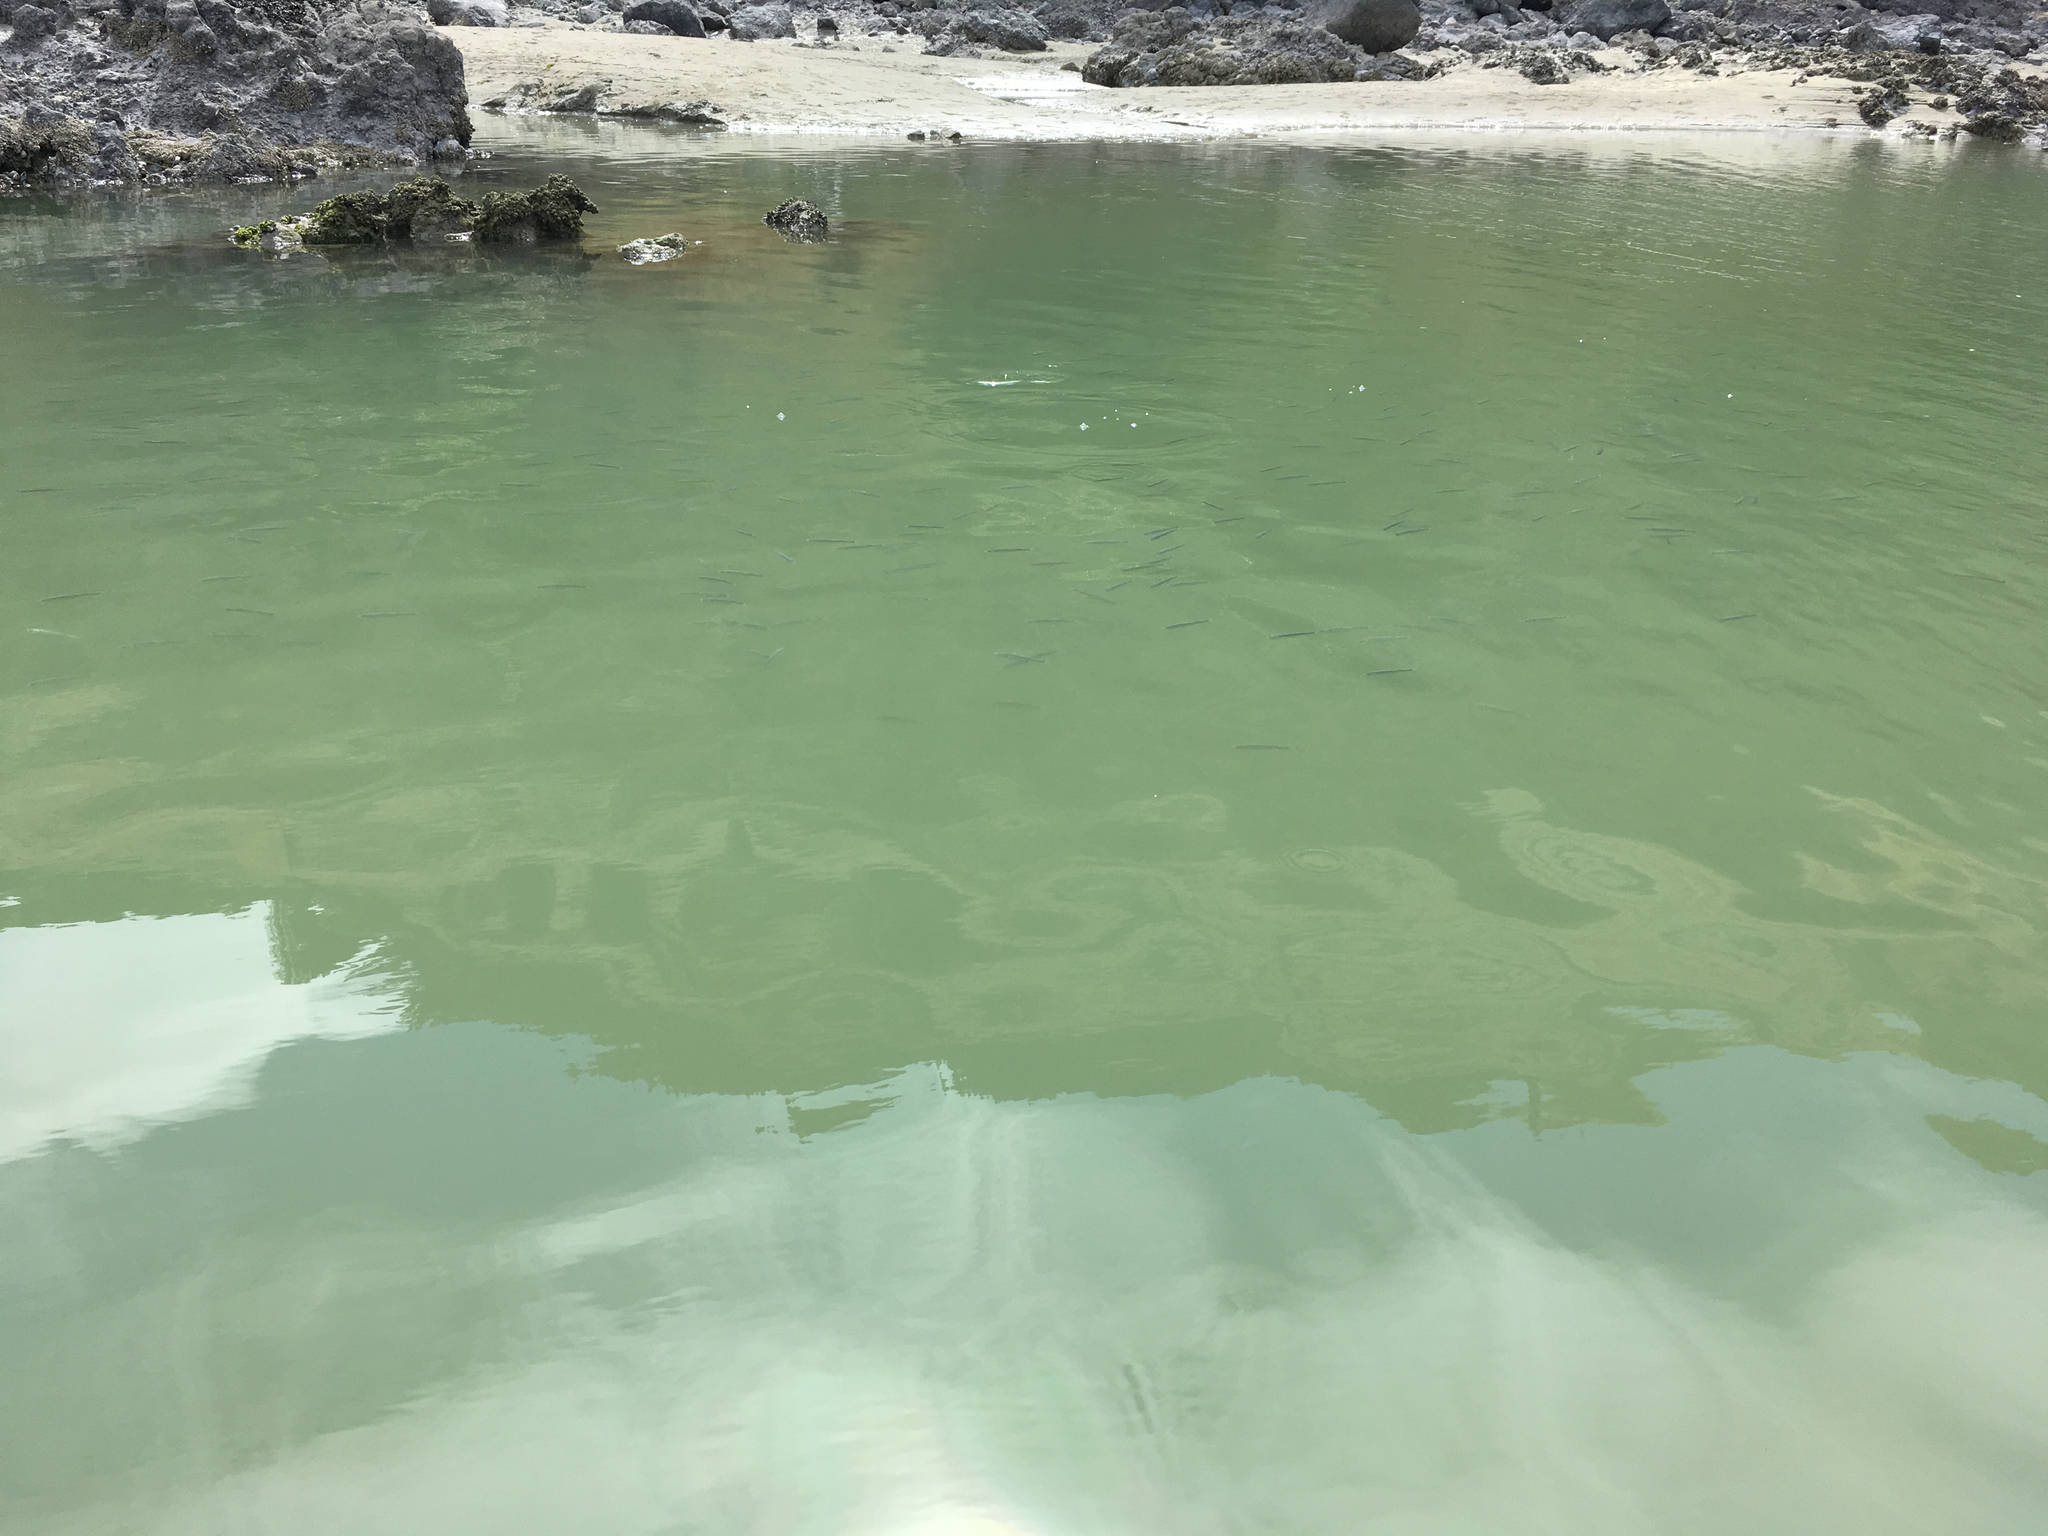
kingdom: Animalia
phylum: Chordata
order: Mugiliformes
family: Mugilidae
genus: Aldrichetta
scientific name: Aldrichetta forsteri
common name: Yellow-eye mullet
